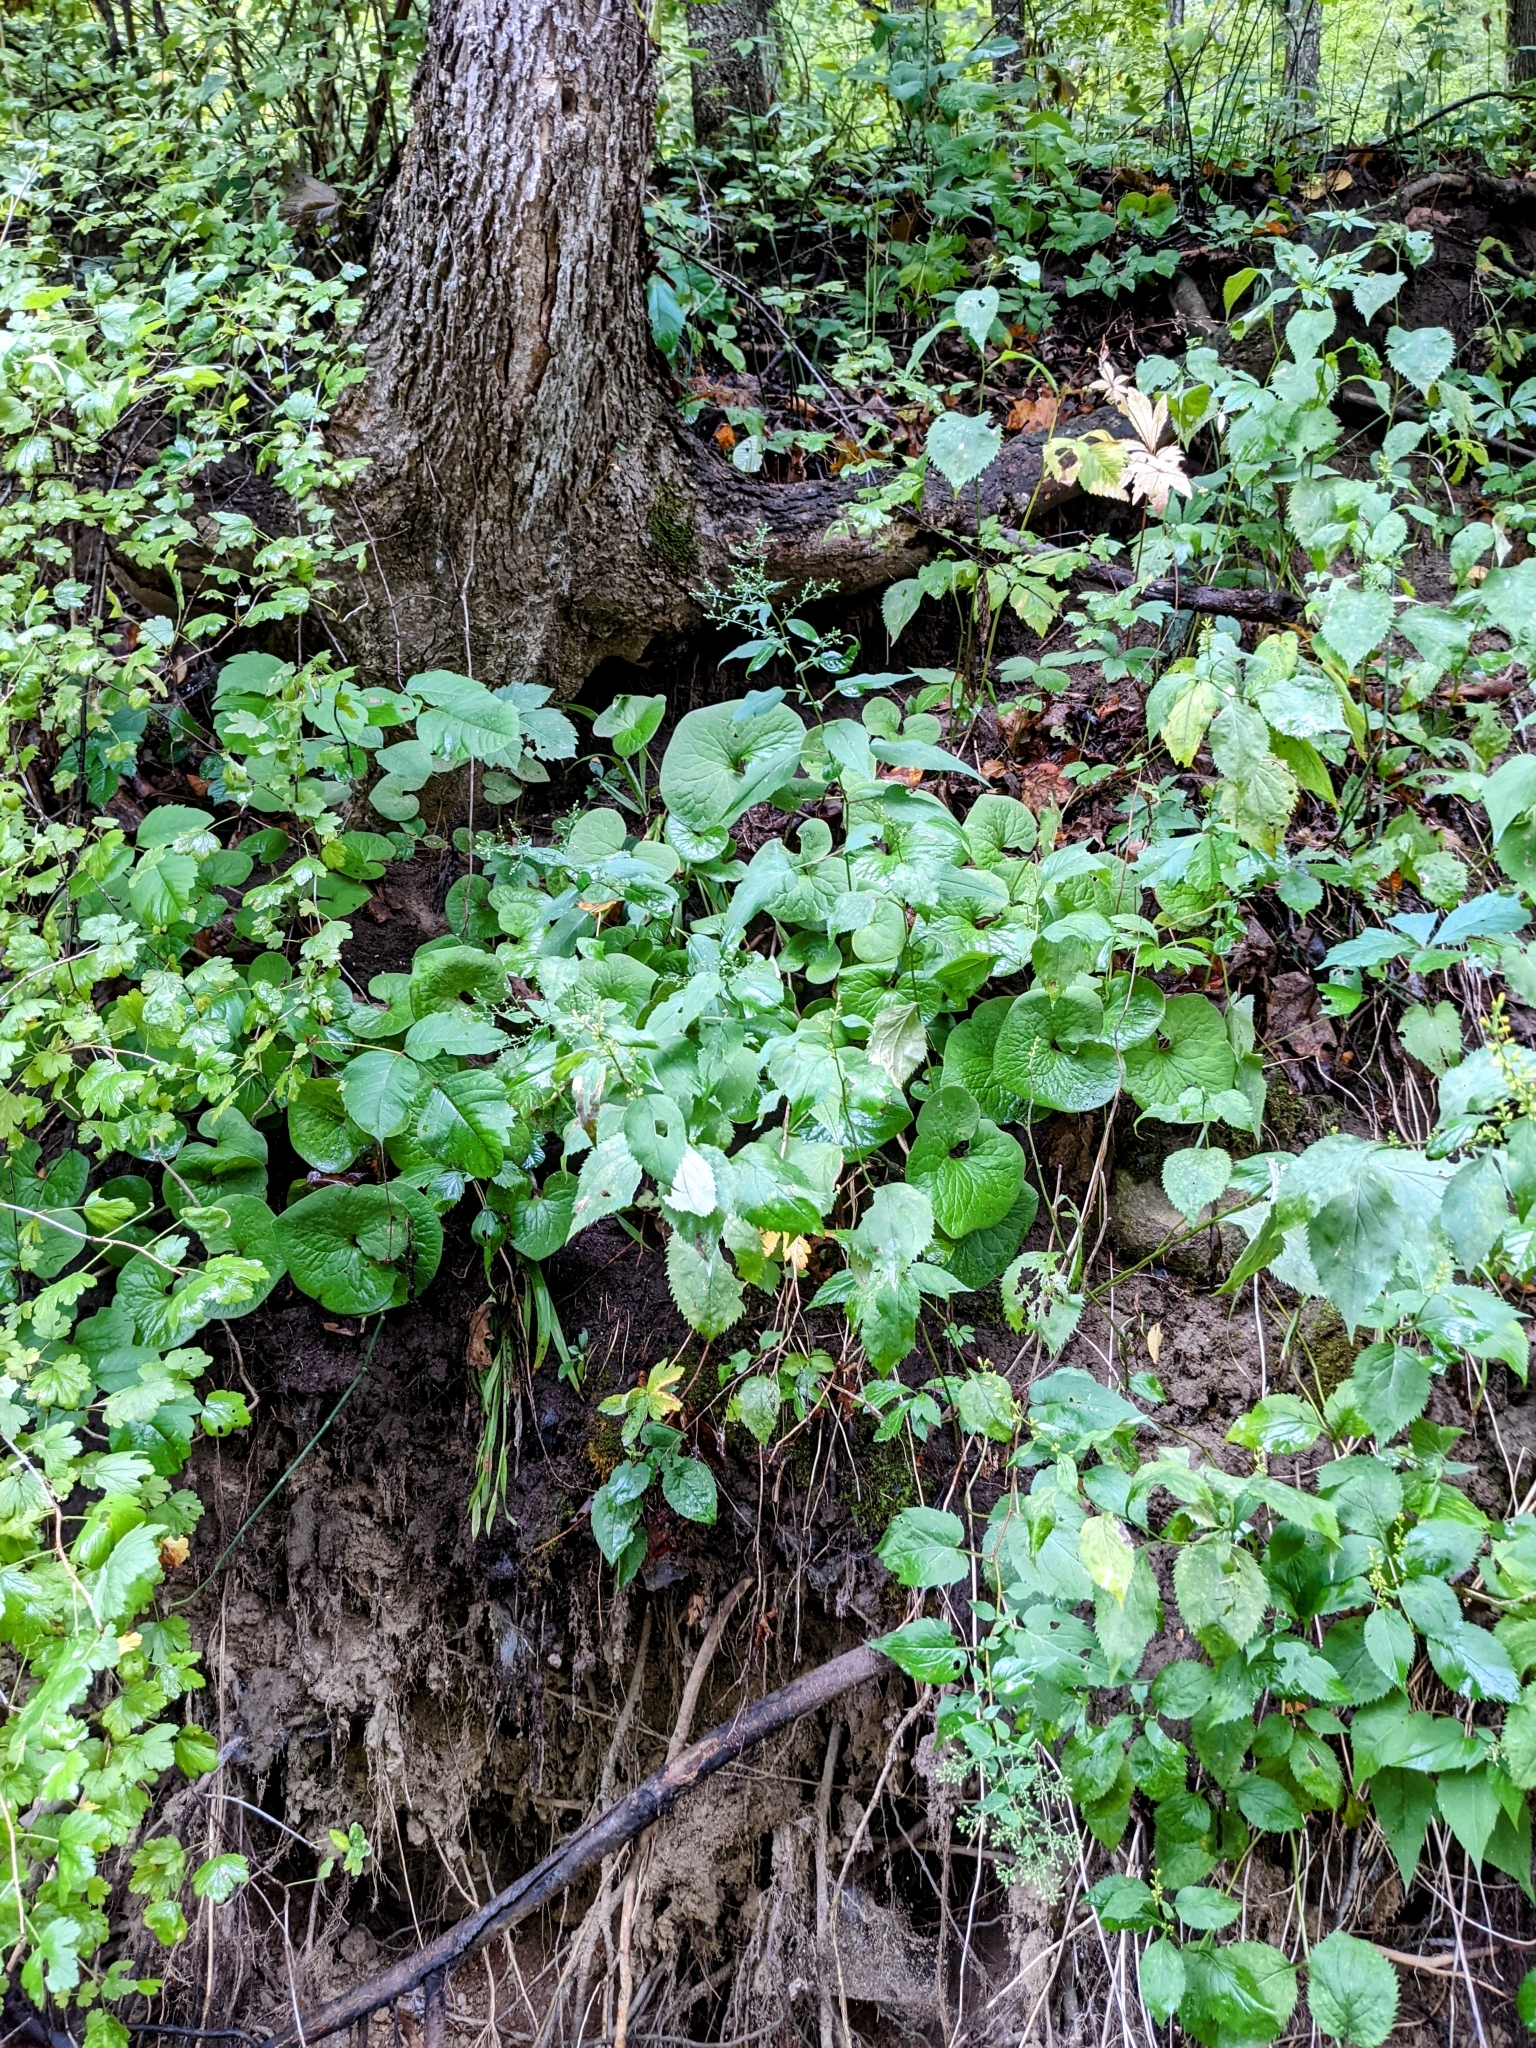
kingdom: Plantae
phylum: Tracheophyta
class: Magnoliopsida
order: Piperales
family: Aristolochiaceae
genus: Asarum
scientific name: Asarum canadense
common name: Wild ginger
